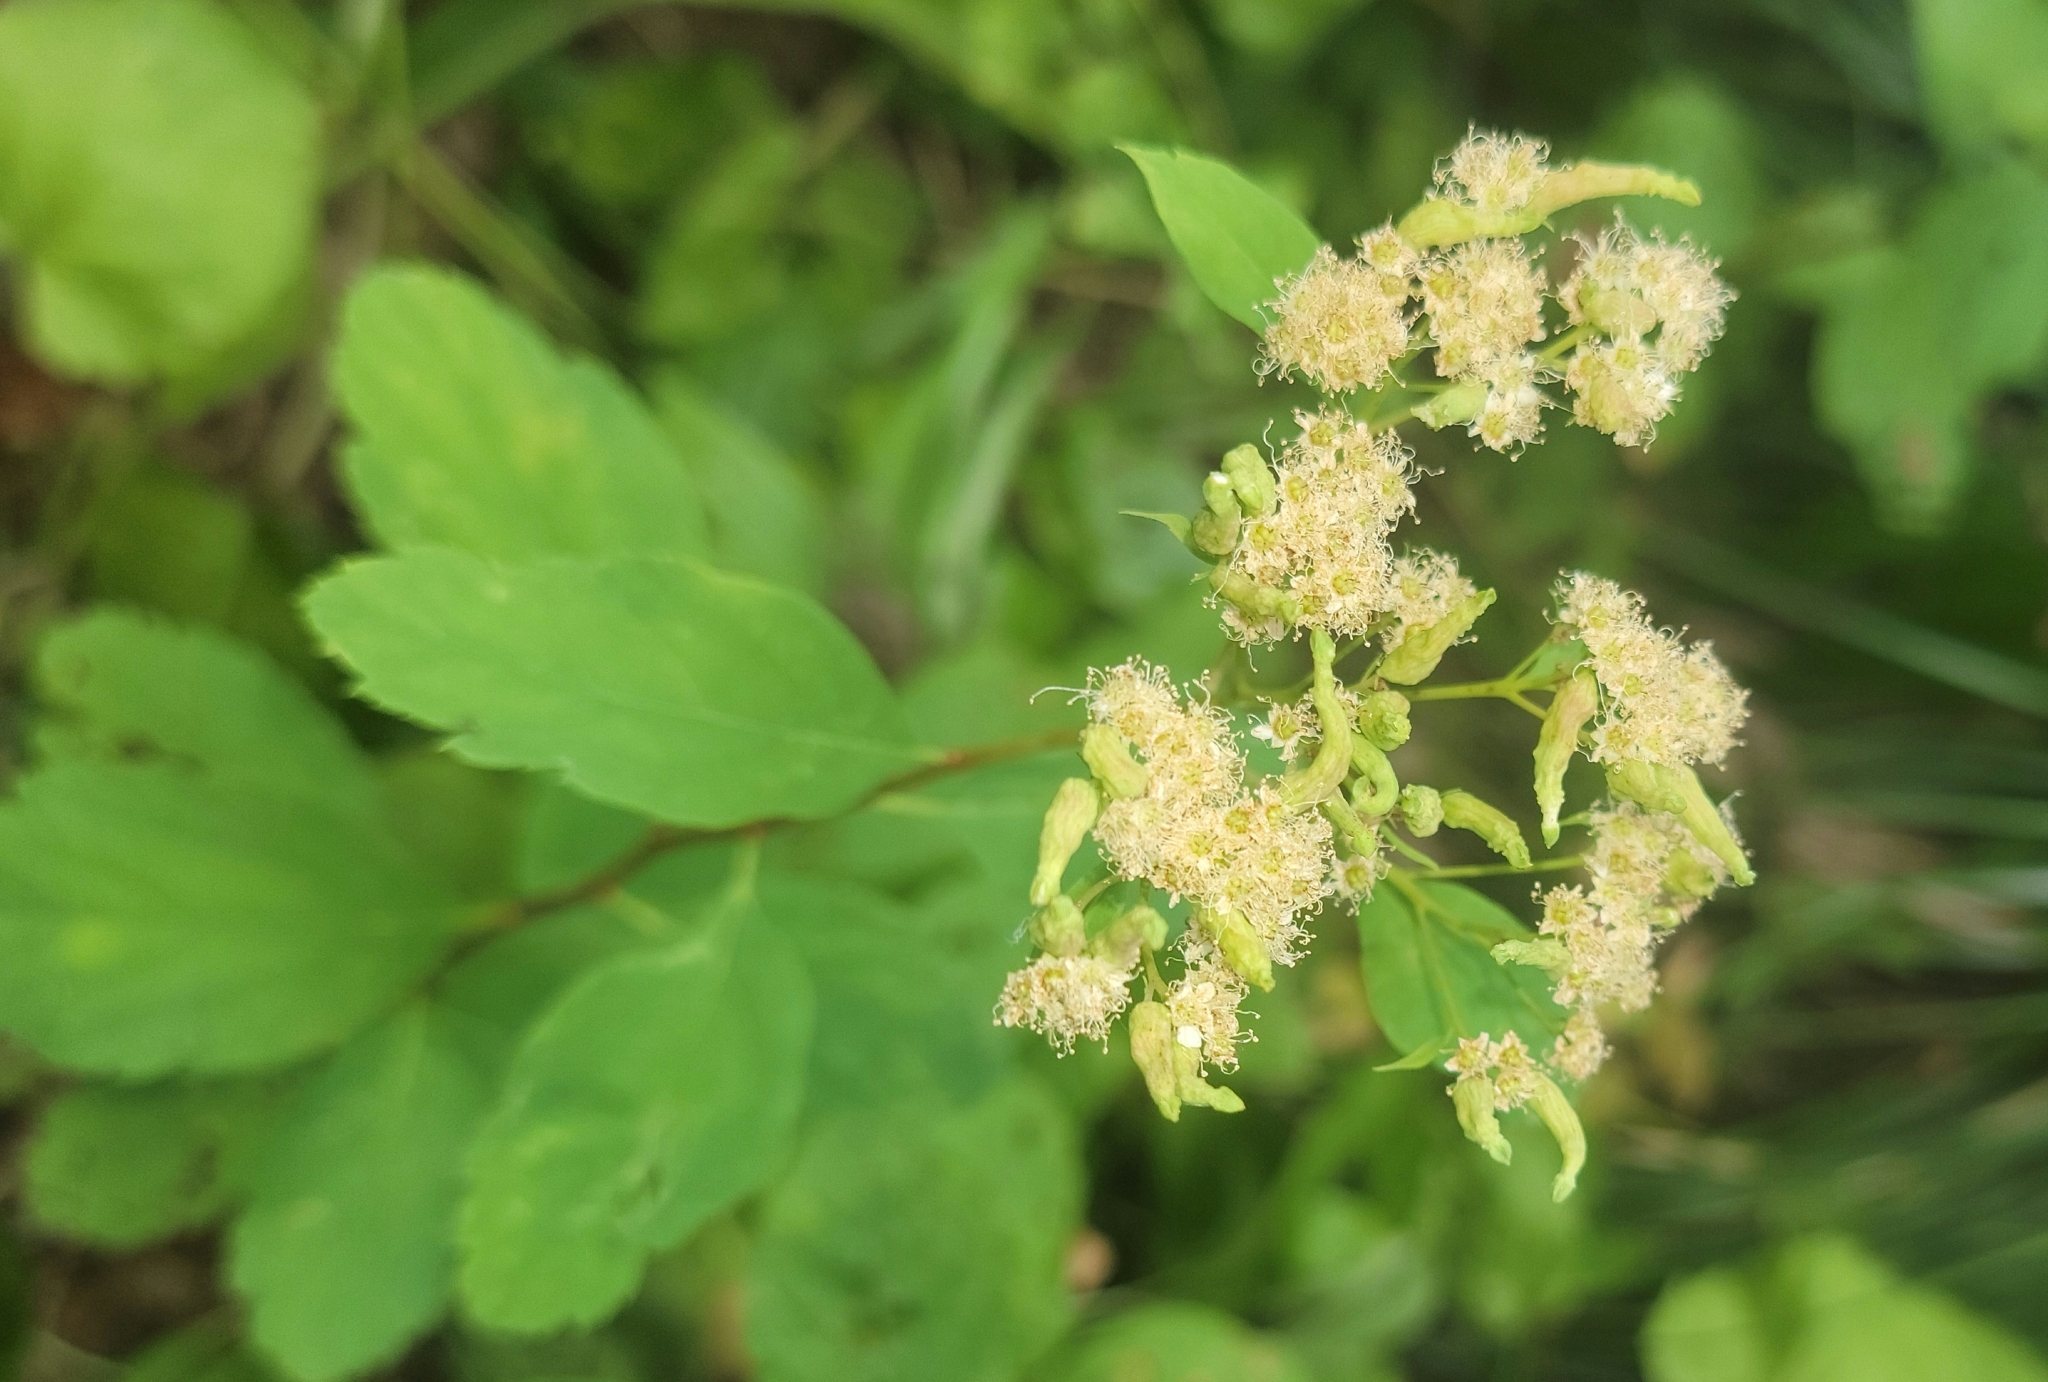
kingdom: Plantae
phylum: Tracheophyta
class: Magnoliopsida
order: Rosales
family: Rosaceae
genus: Spiraea
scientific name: Spiraea lucida
